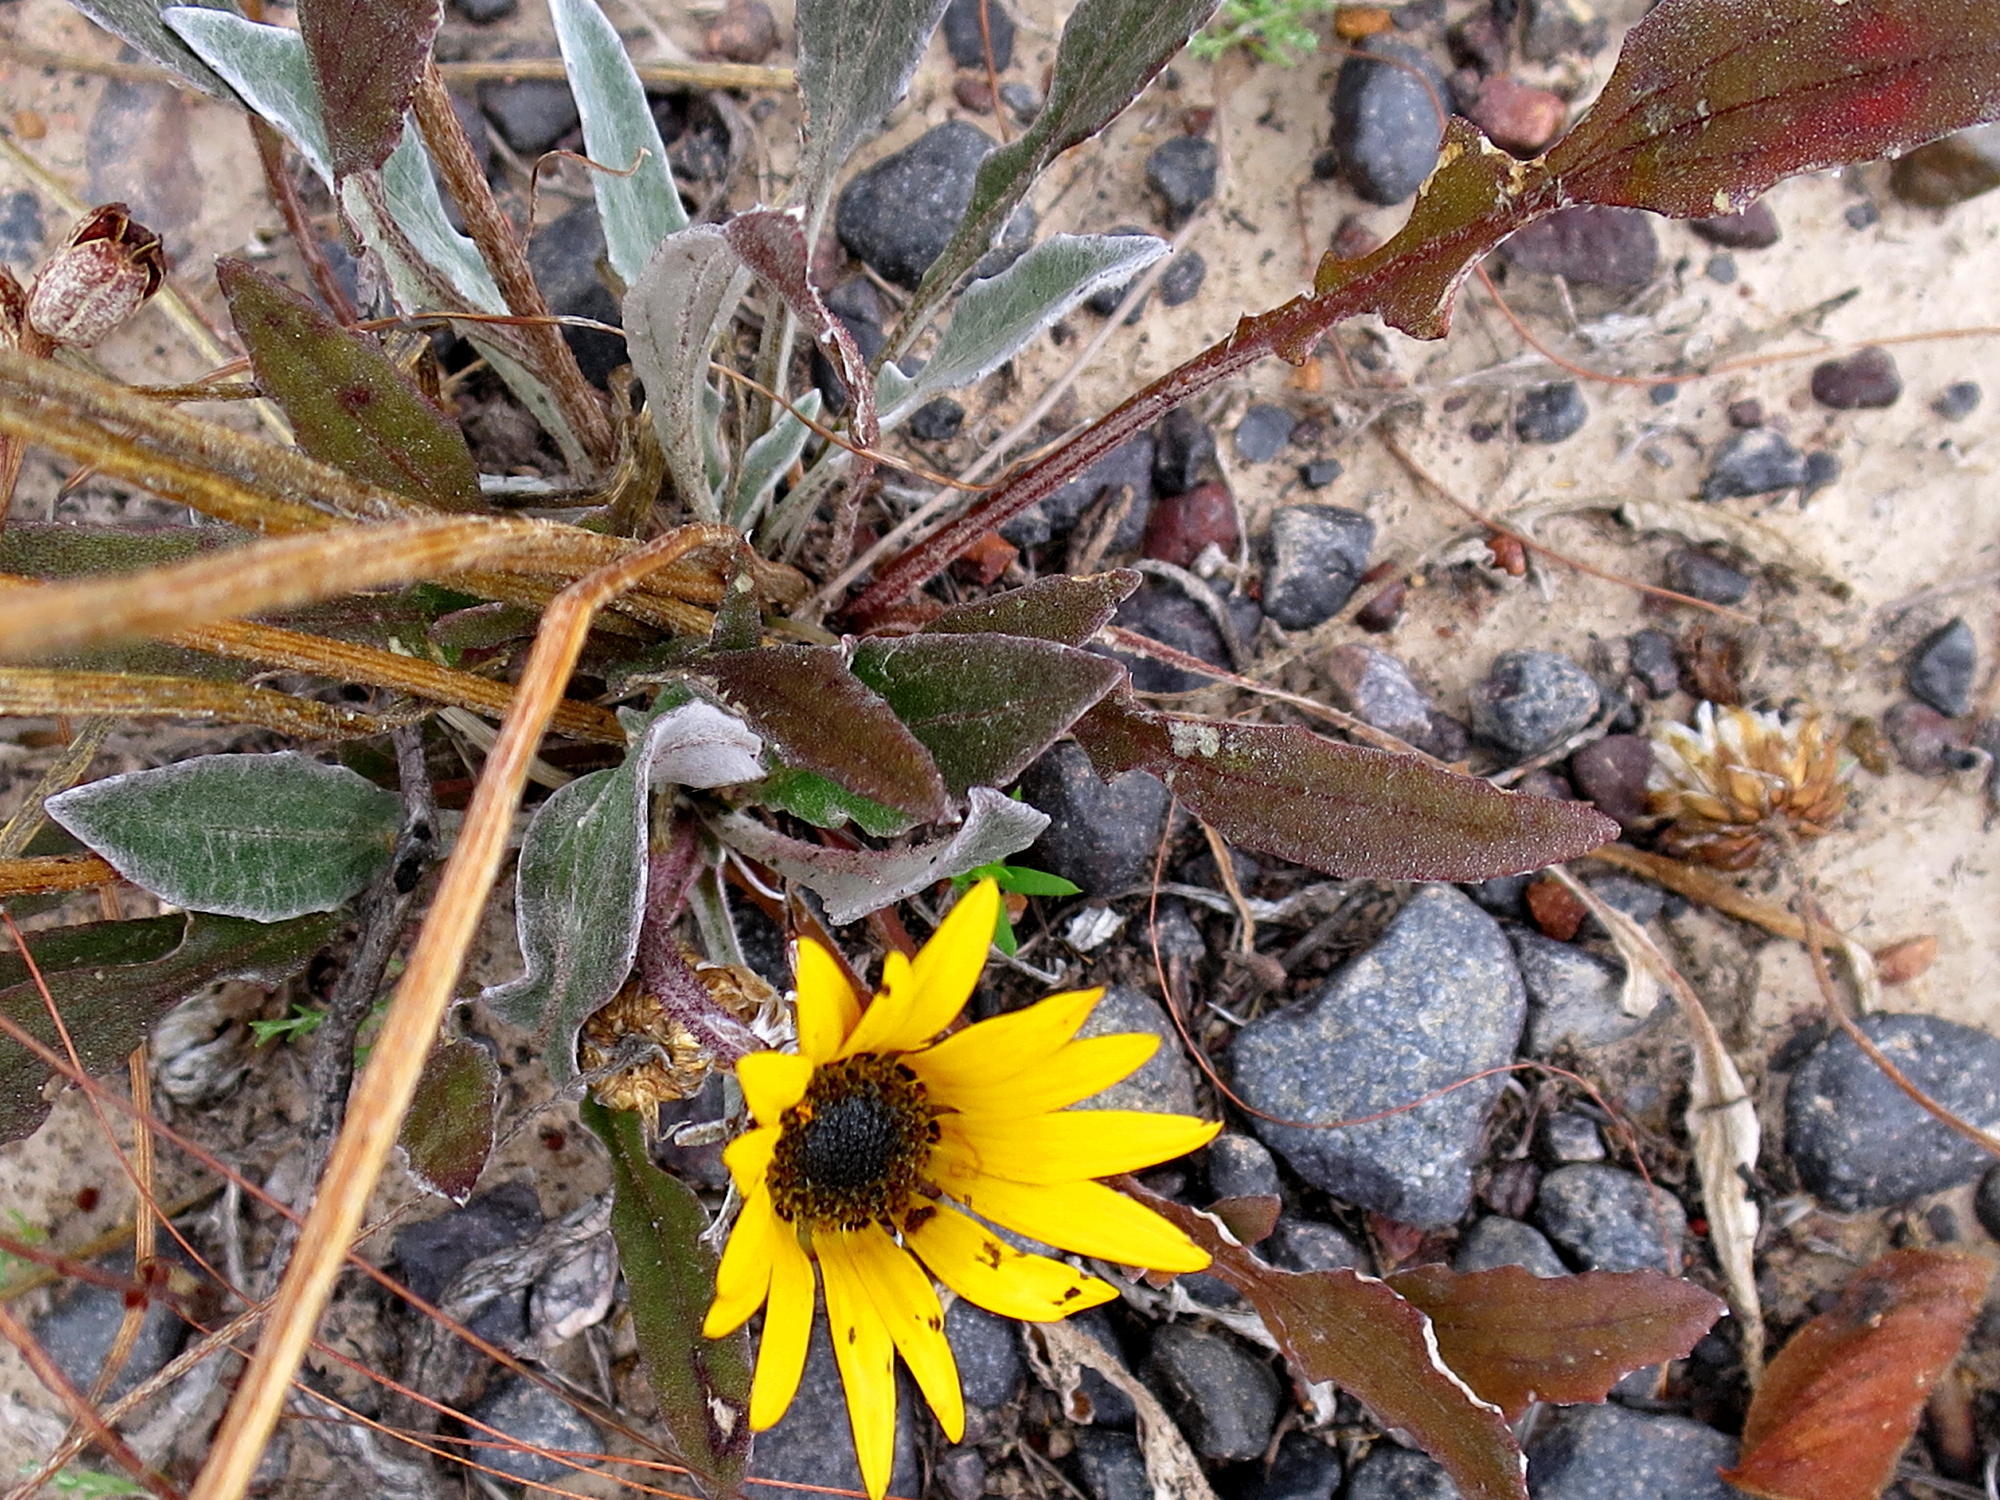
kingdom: Plantae
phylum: Tracheophyta
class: Magnoliopsida
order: Asterales
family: Asteraceae
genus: Arctotis
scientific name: Arctotis acaulis
